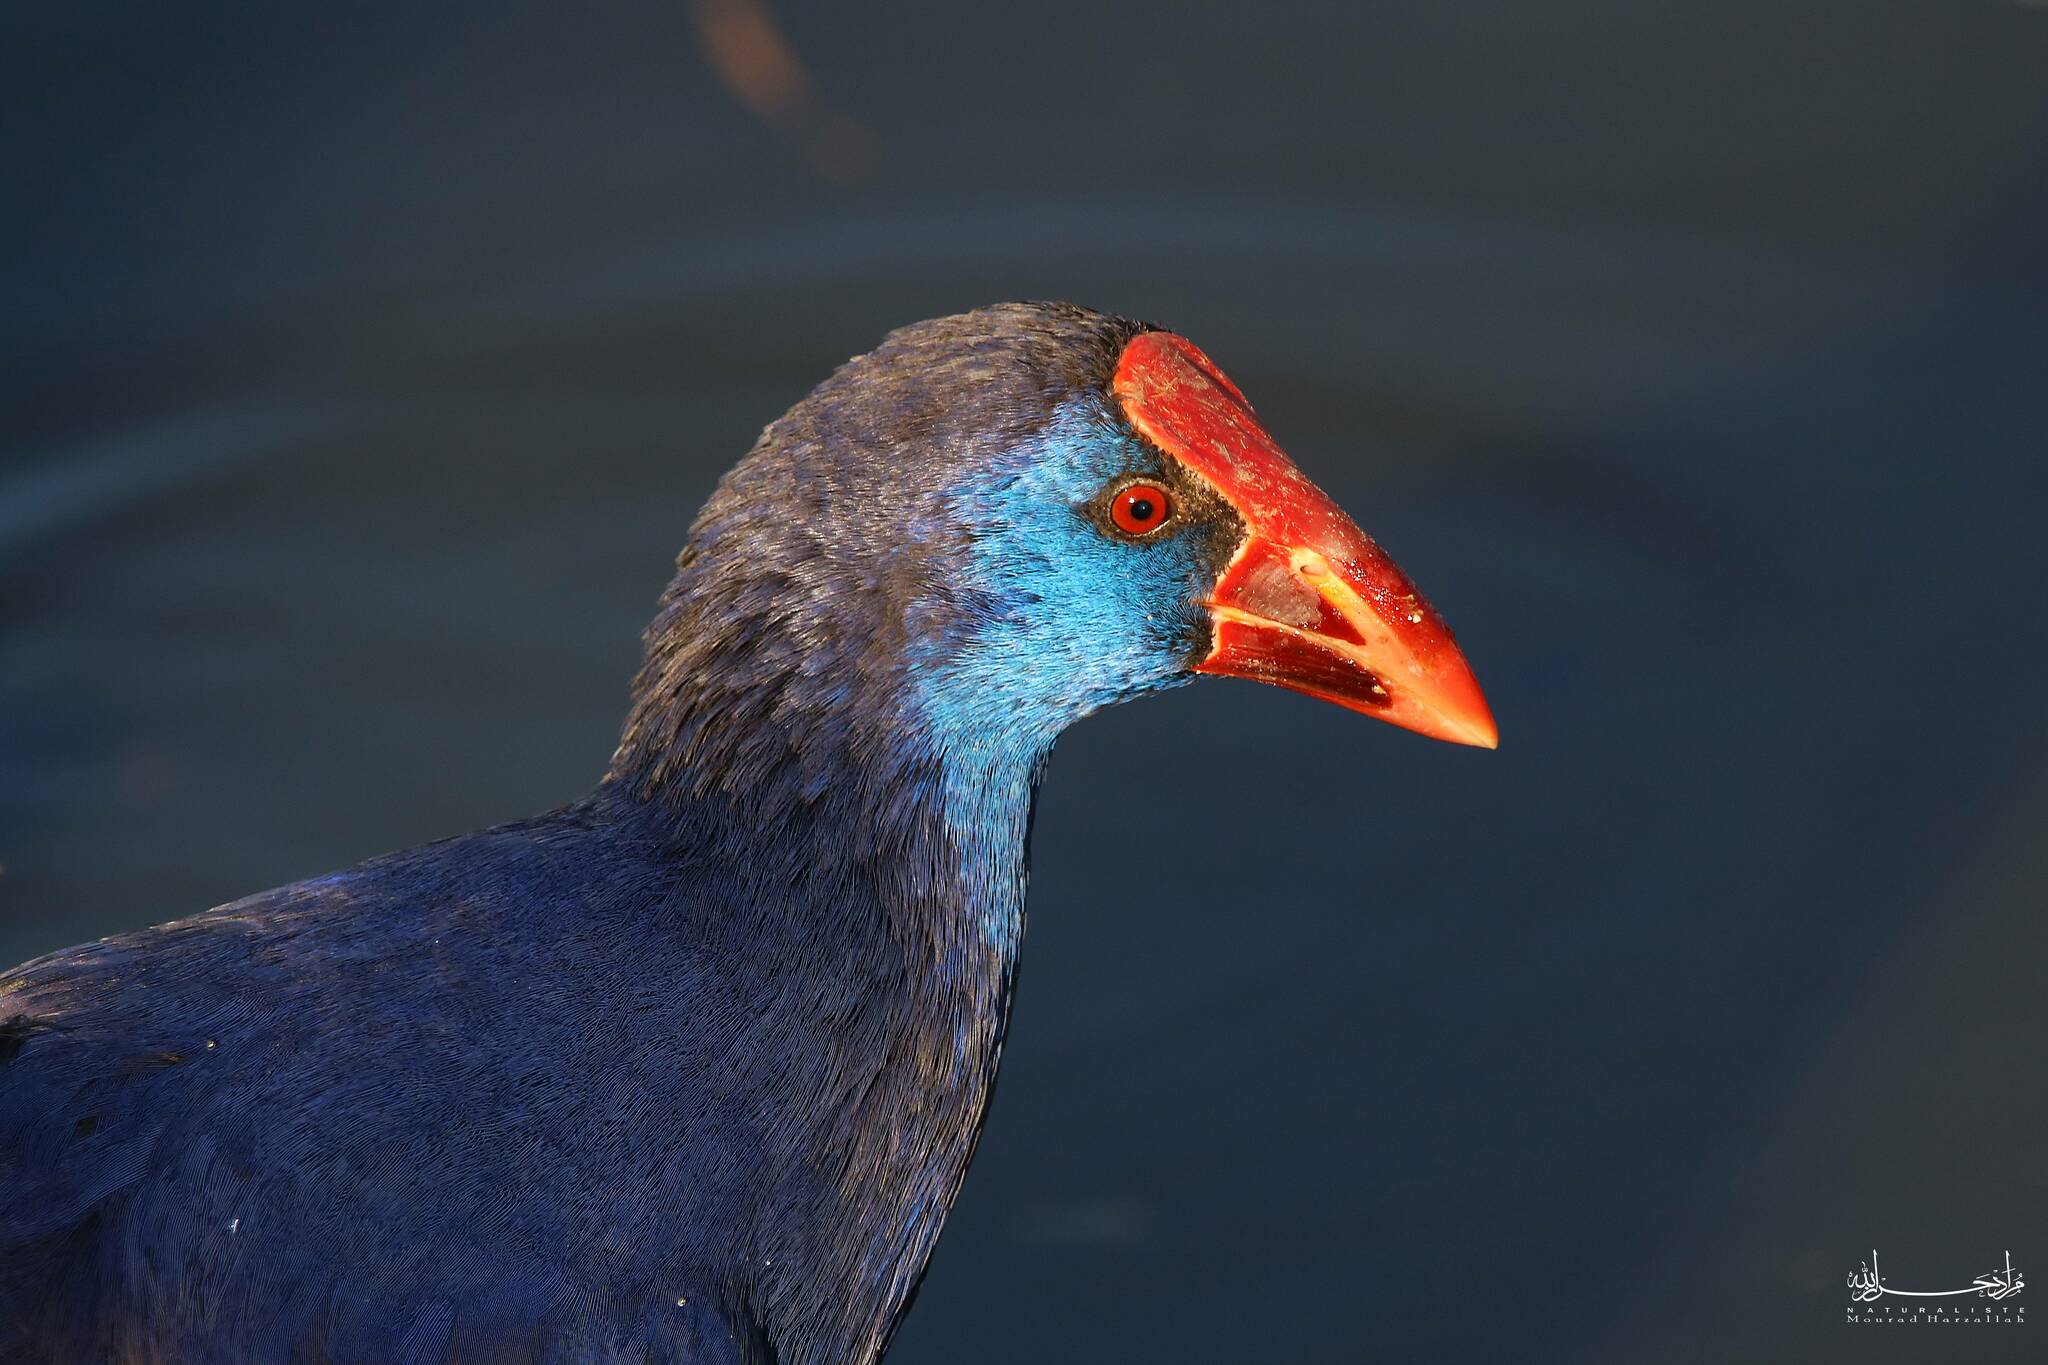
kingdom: Animalia
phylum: Chordata
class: Aves
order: Gruiformes
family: Rallidae
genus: Porphyrio
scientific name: Porphyrio porphyrio
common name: Purple swamphen
